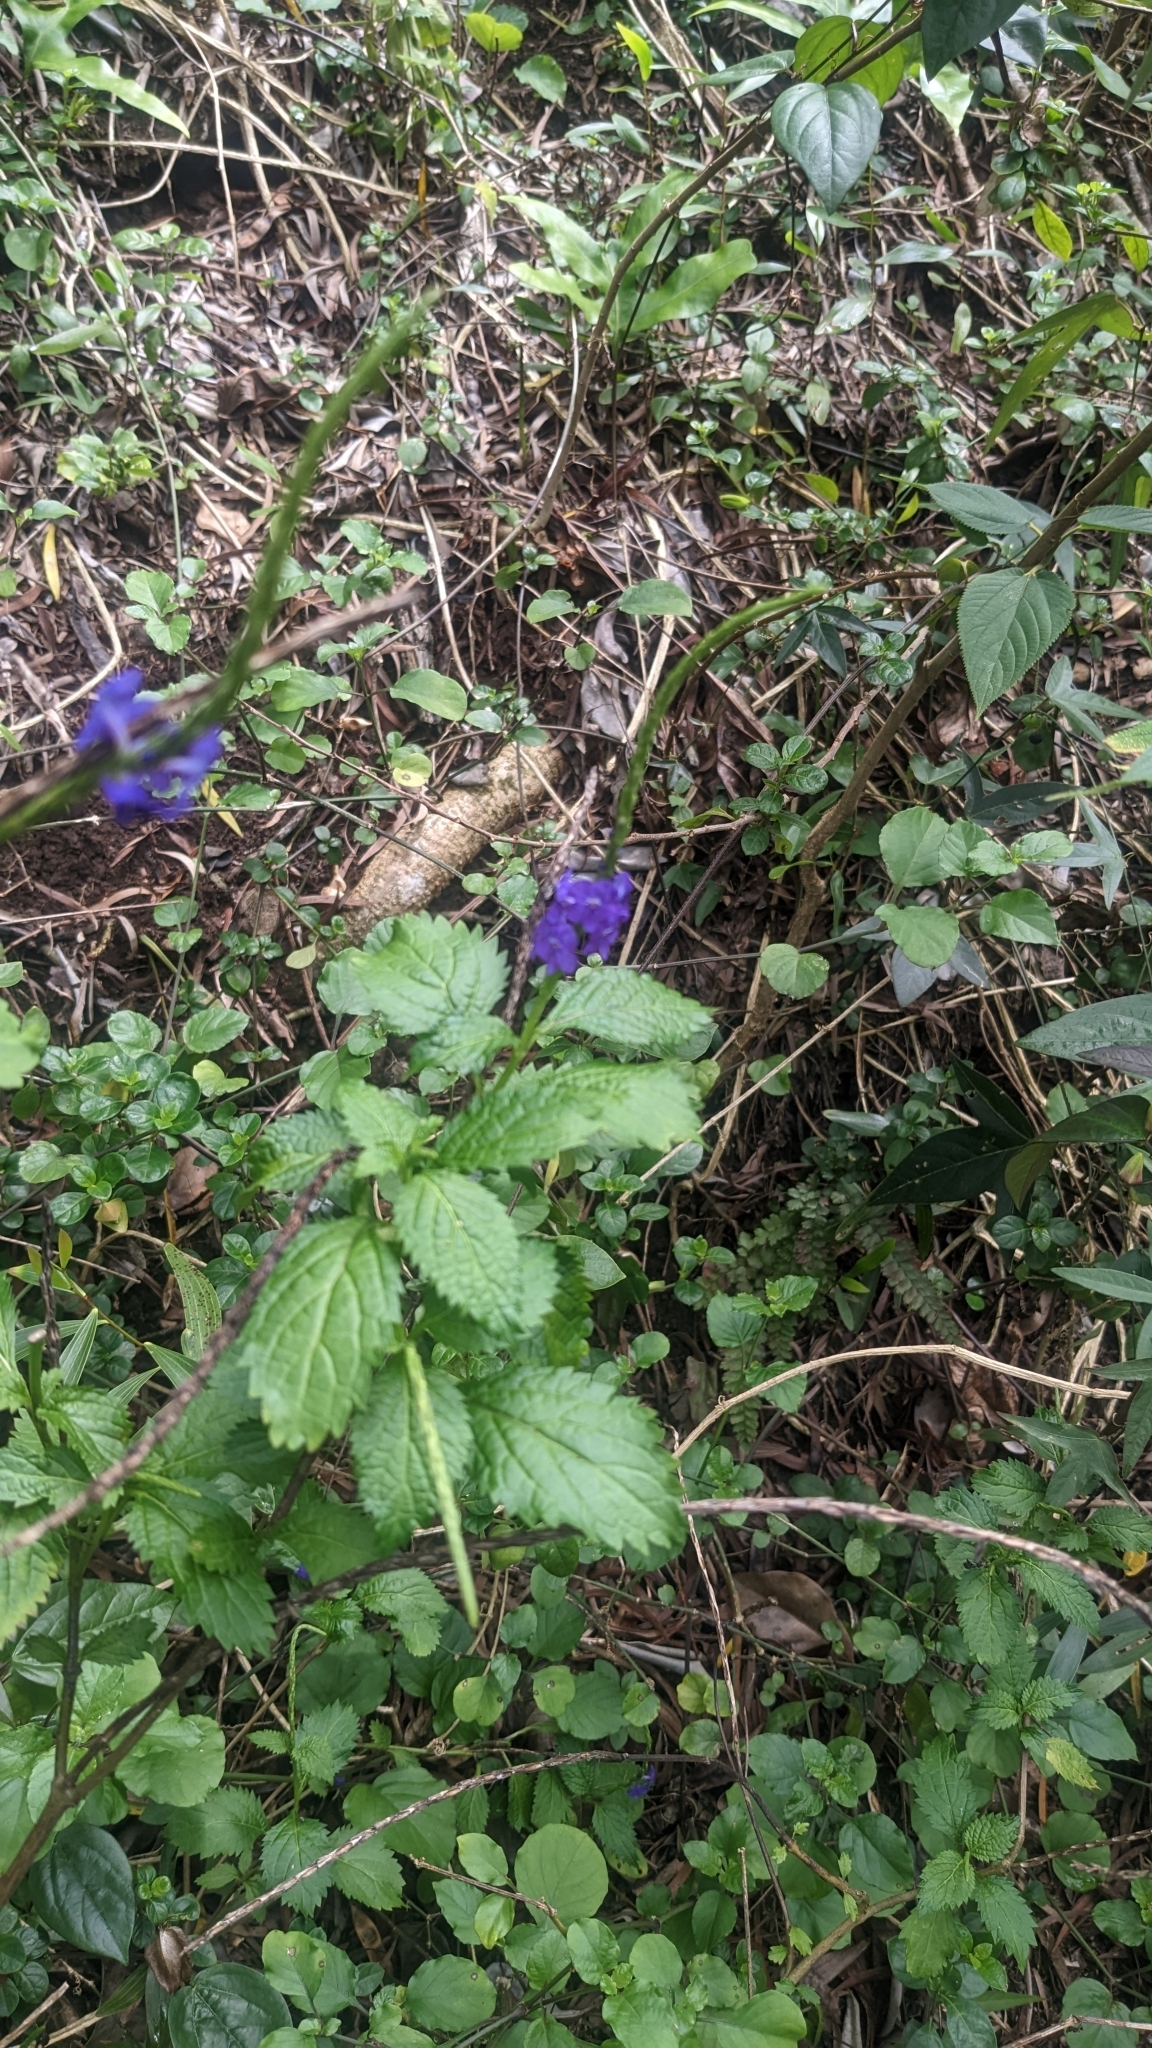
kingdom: Plantae
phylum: Tracheophyta
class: Magnoliopsida
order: Lamiales
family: Verbenaceae
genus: Stachytarpheta
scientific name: Stachytarpheta cayennensis
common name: Cayenne porterweed
